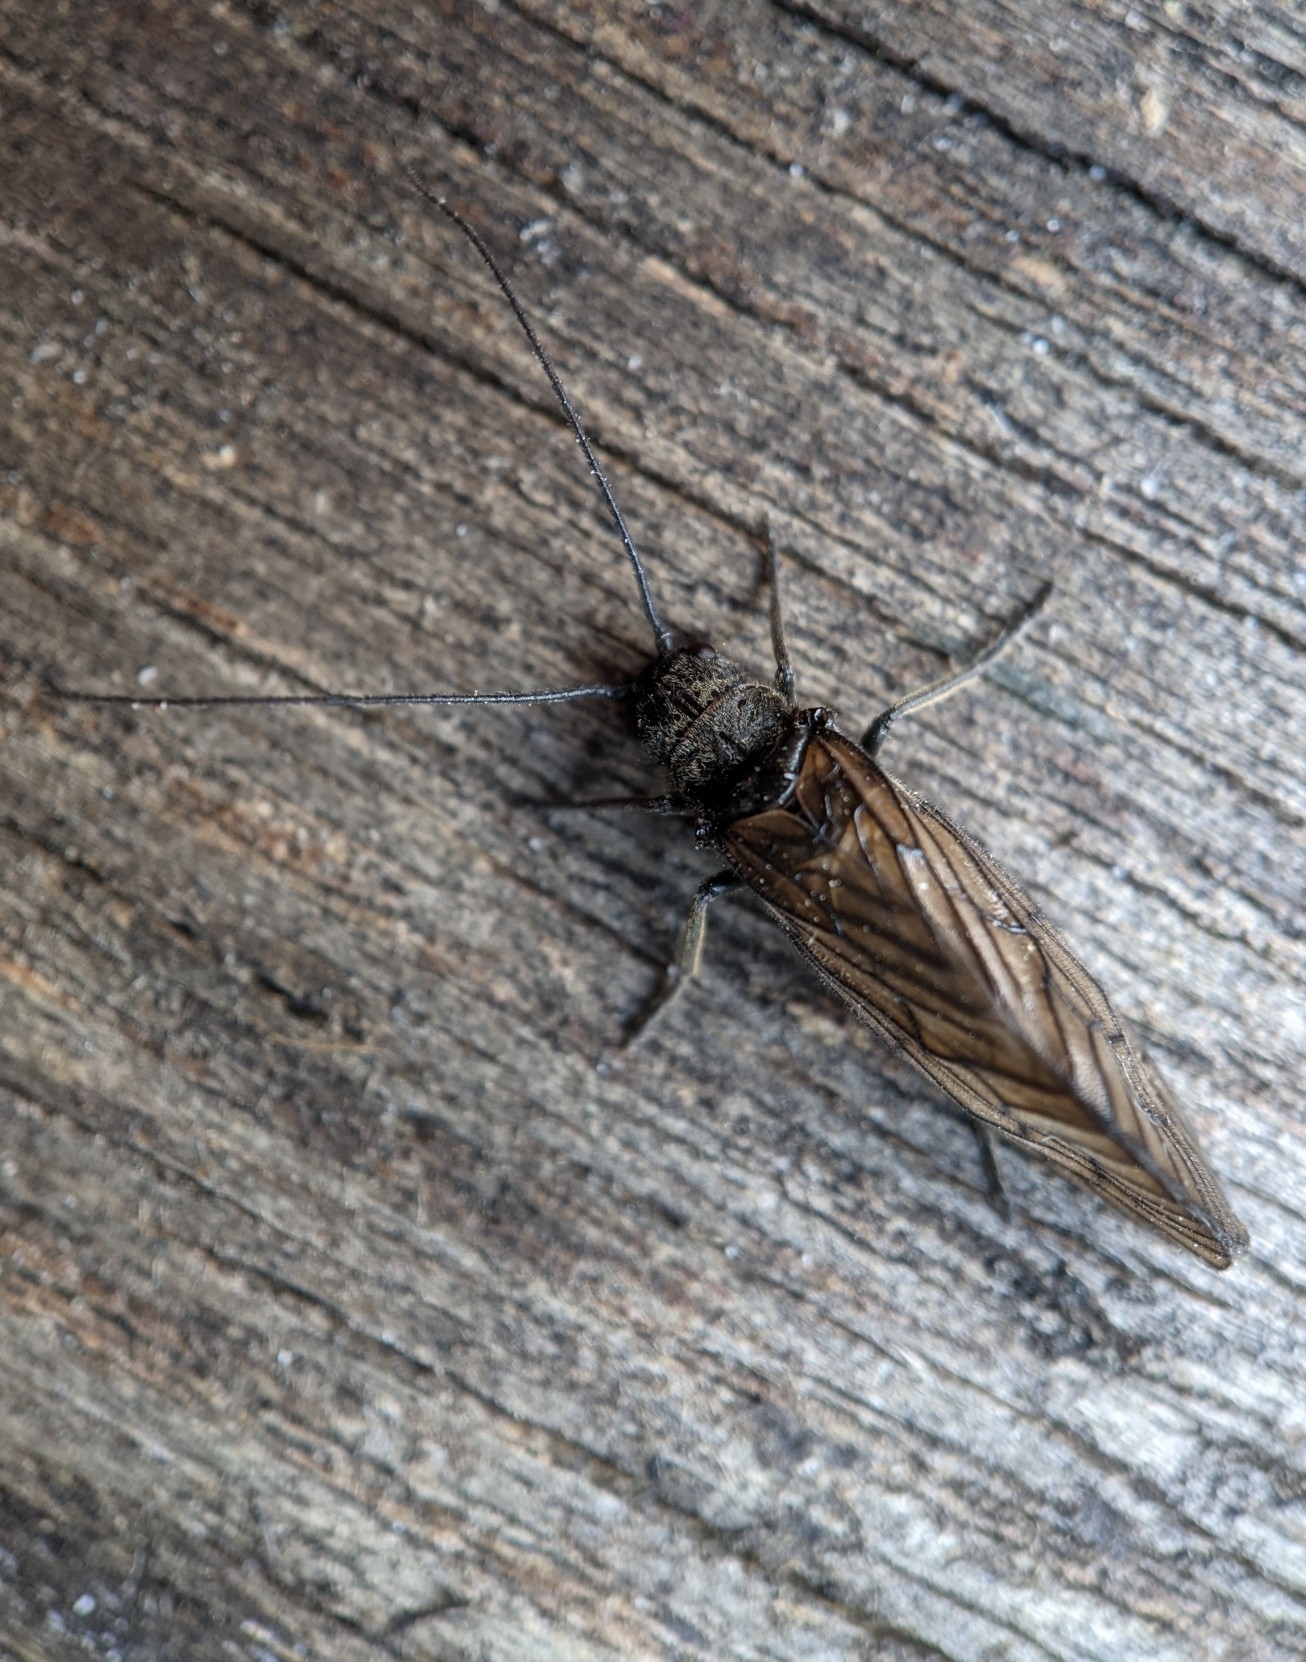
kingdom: Animalia
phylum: Arthropoda
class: Insecta
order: Megaloptera
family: Sialidae
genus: Sialis
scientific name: Sialis
